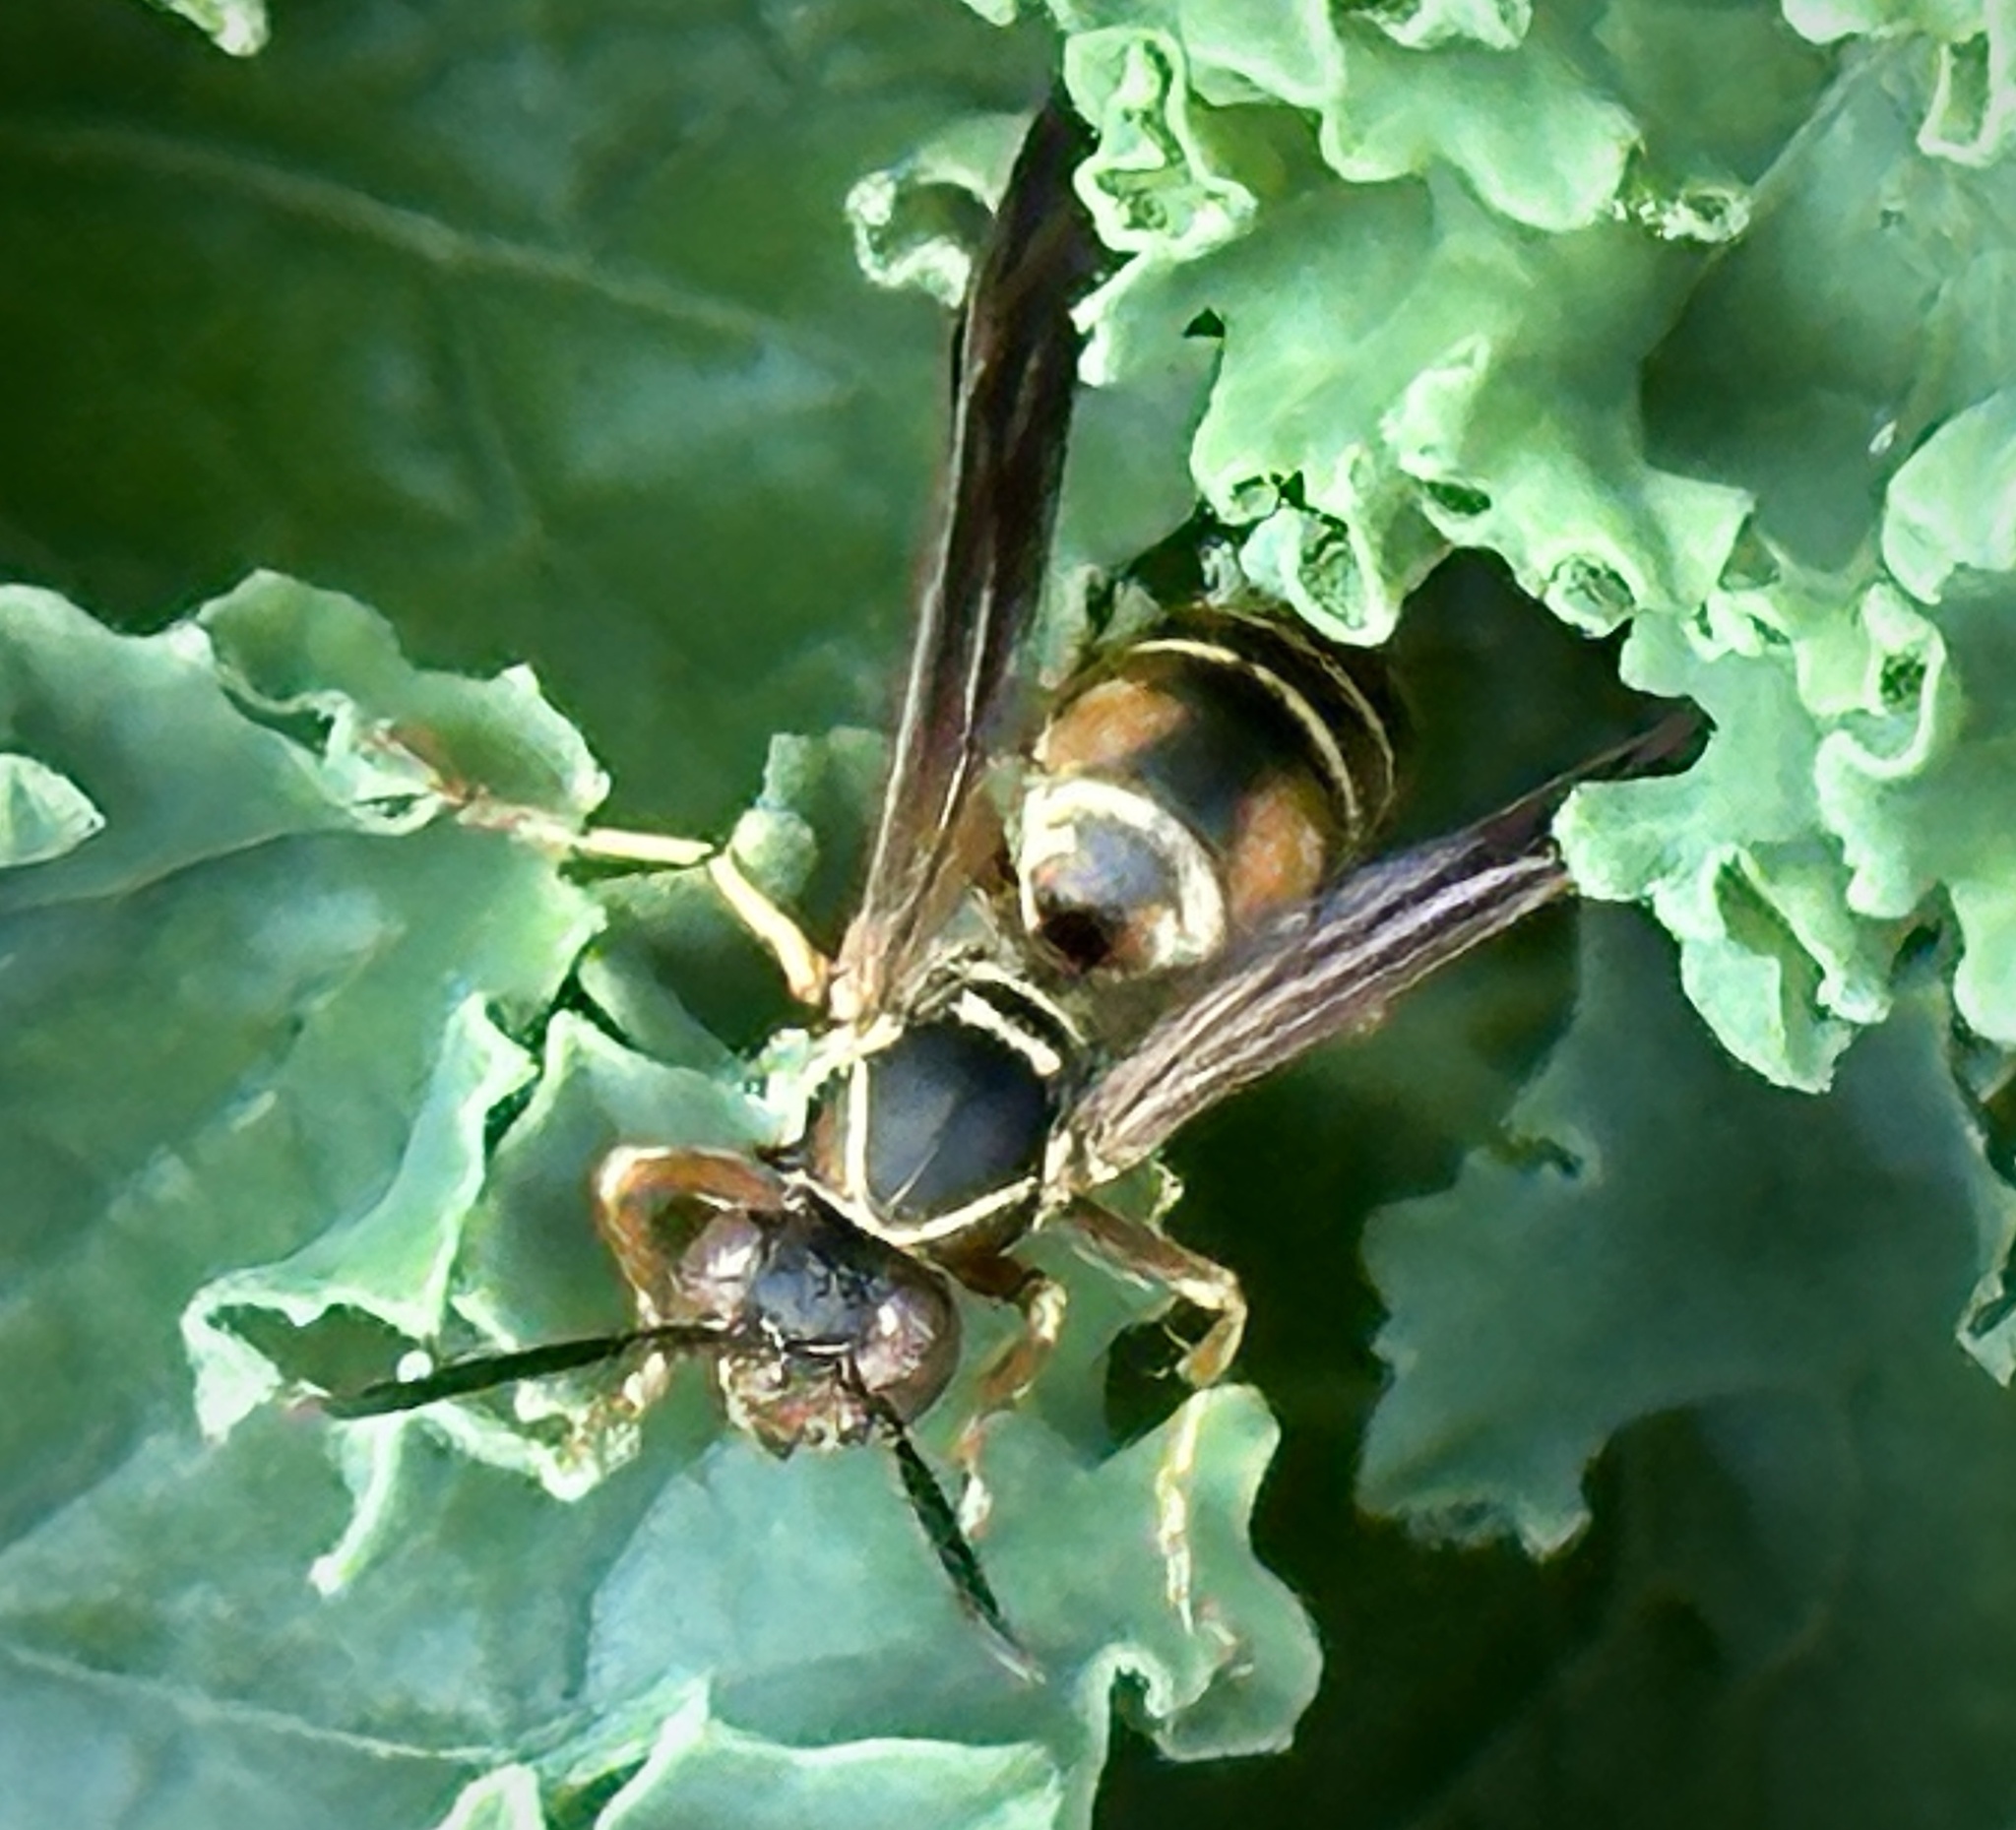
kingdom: Animalia
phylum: Arthropoda
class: Insecta
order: Hymenoptera
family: Eumenidae
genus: Polistes
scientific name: Polistes fuscatus
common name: Dark paper wasp
